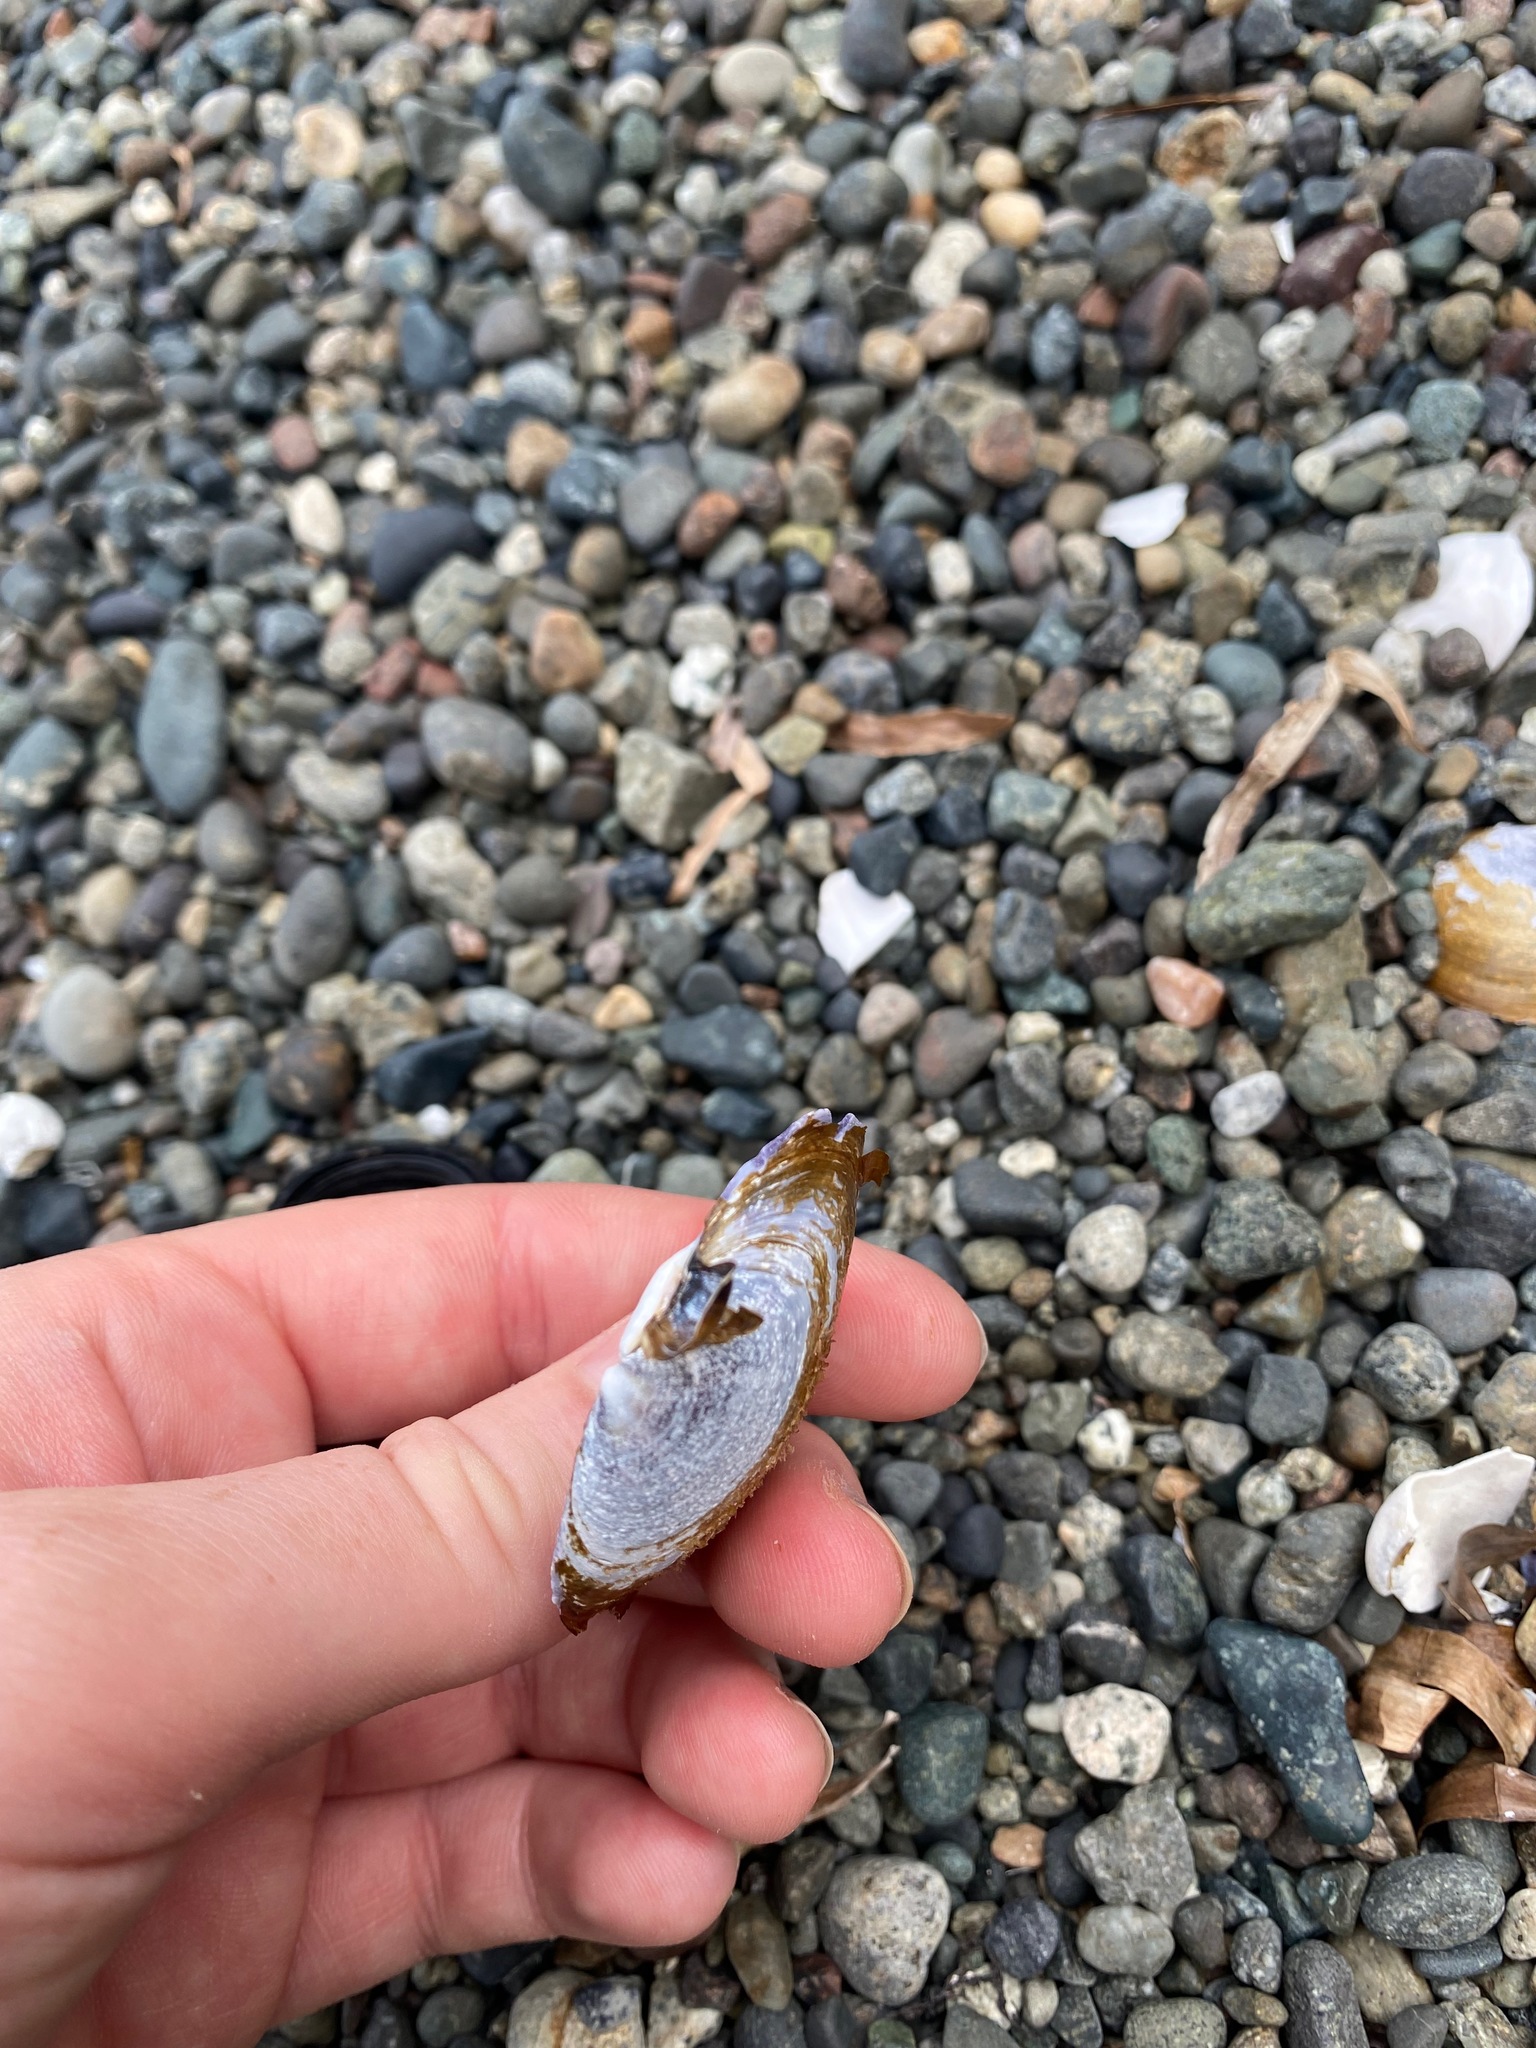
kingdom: Animalia
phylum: Mollusca
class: Bivalvia
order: Cardiida
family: Psammobiidae
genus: Nuttallia
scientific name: Nuttallia obscurata
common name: Purple mahogany-clam
